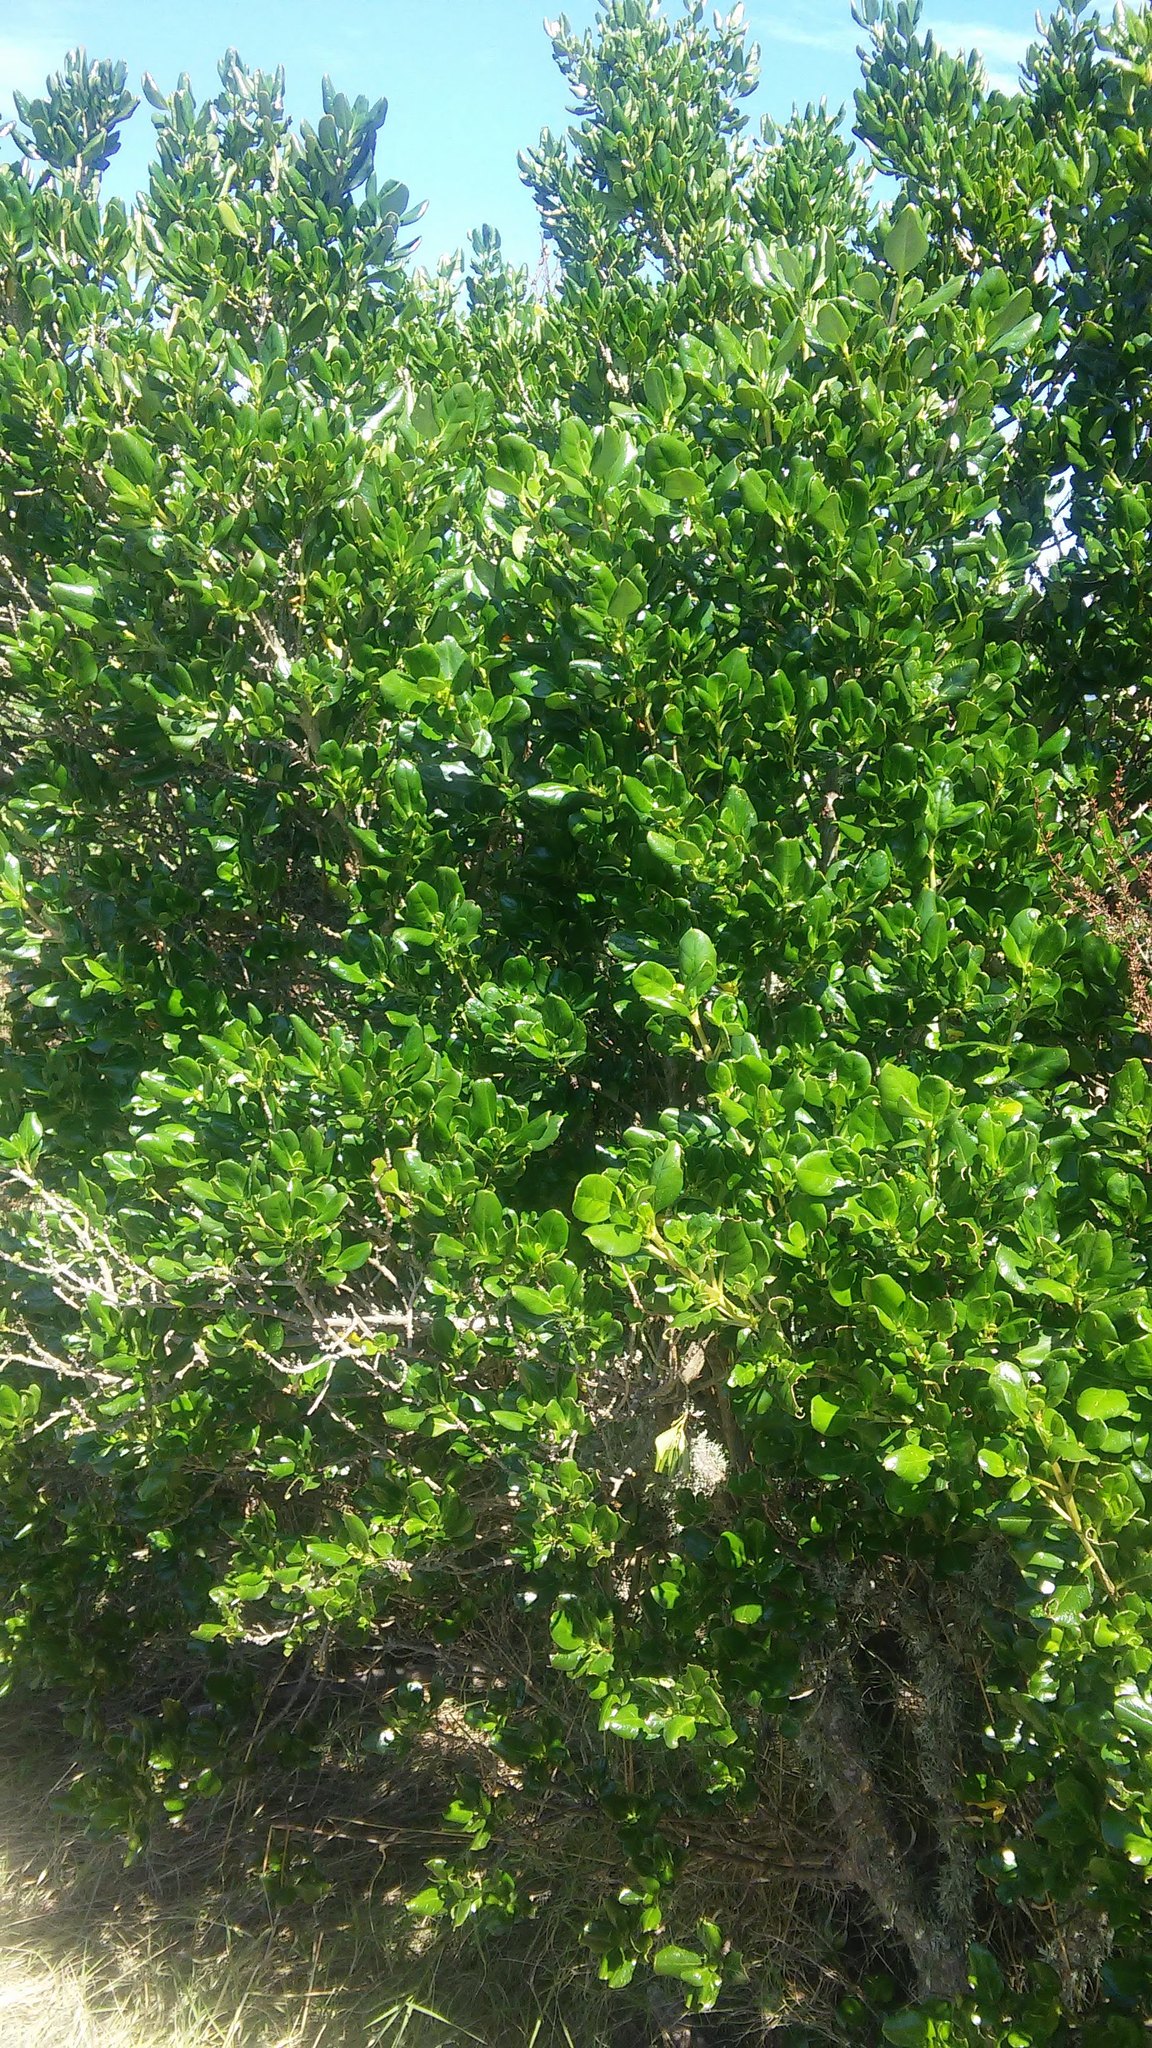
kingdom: Plantae
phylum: Tracheophyta
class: Magnoliopsida
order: Gentianales
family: Rubiaceae
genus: Coprosma
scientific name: Coprosma repens
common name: Tree bedstraw
